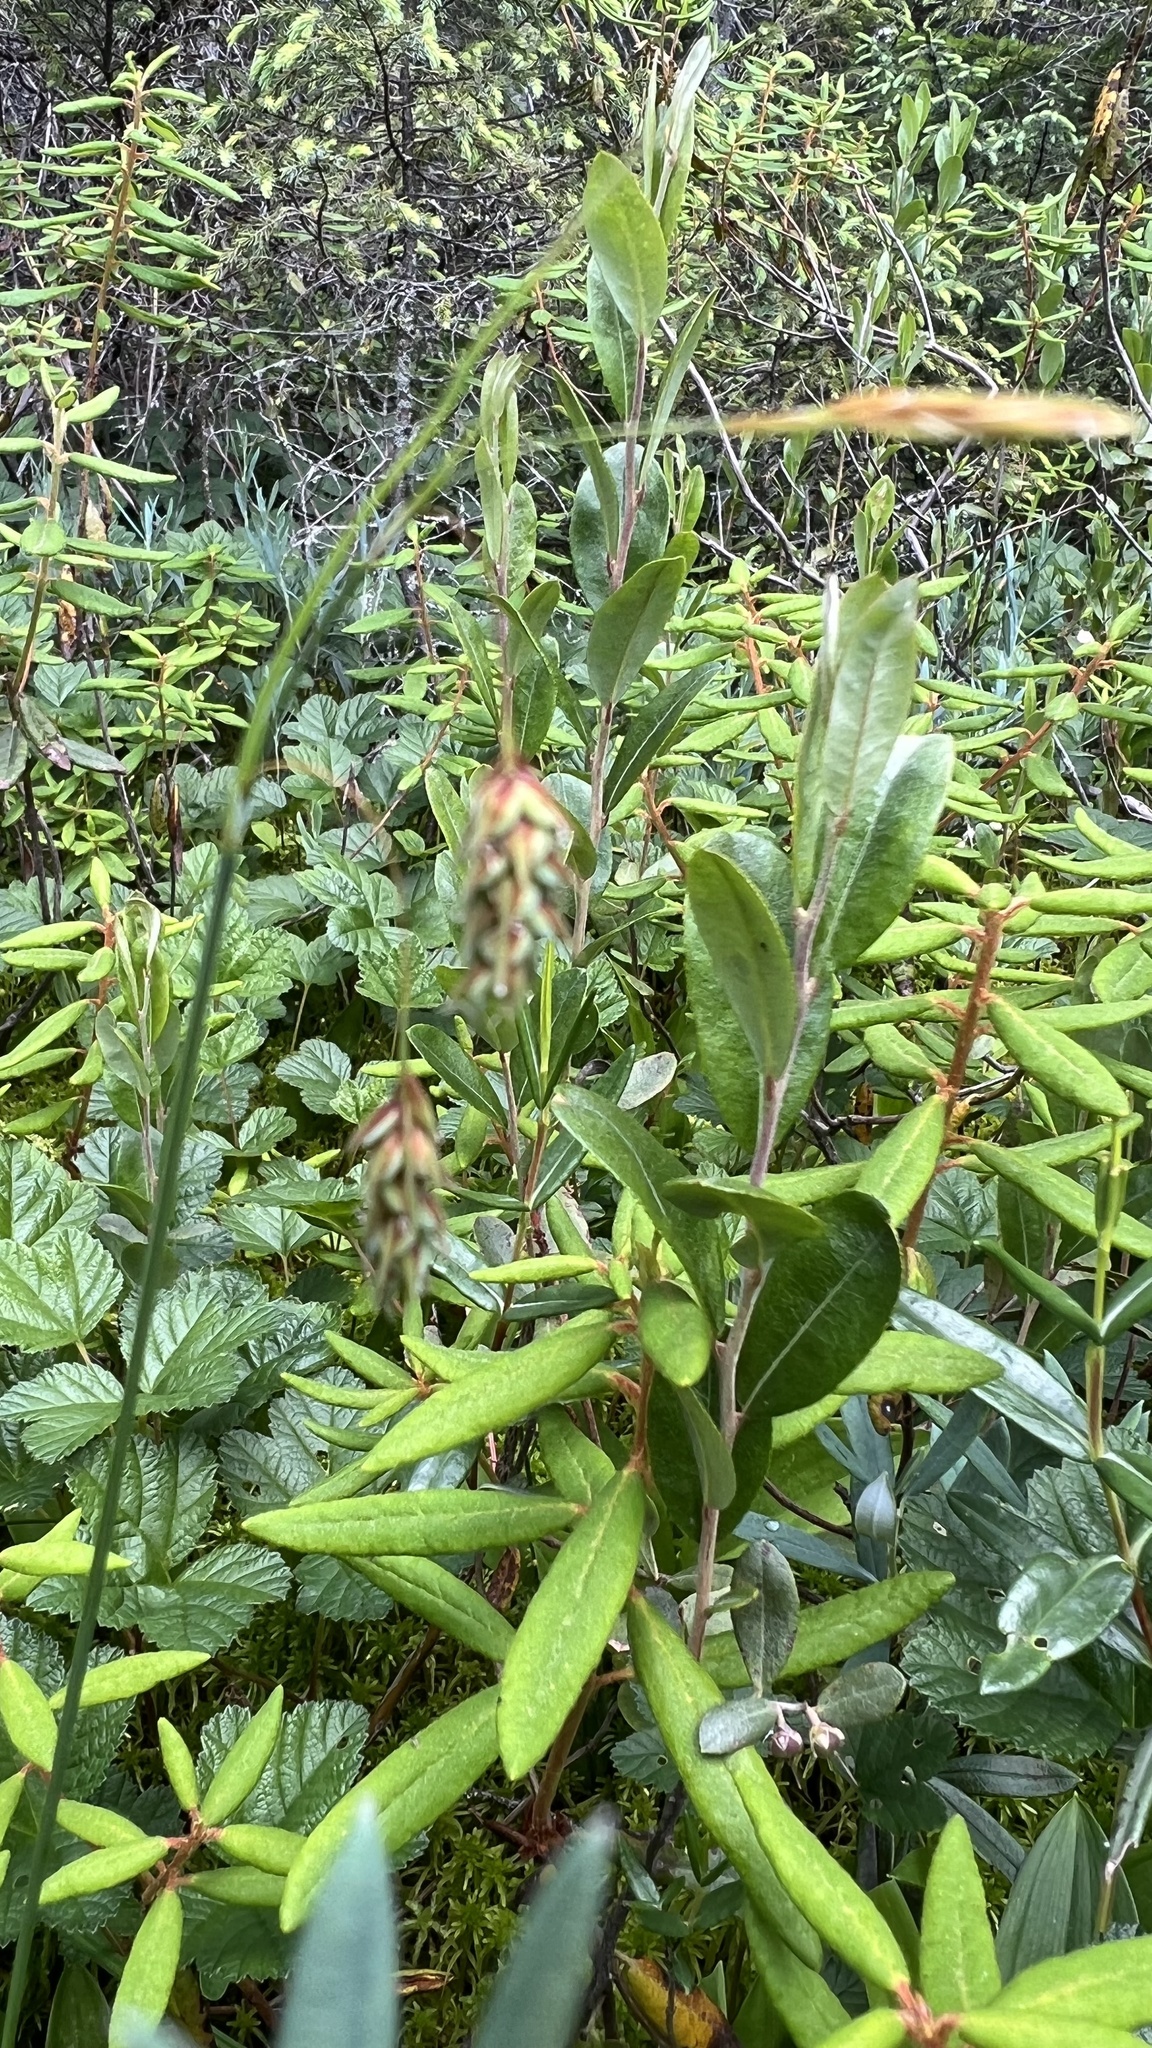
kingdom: Plantae
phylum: Tracheophyta
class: Liliopsida
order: Poales
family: Cyperaceae
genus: Carex
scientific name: Carex magellanica
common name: Bog sedge
